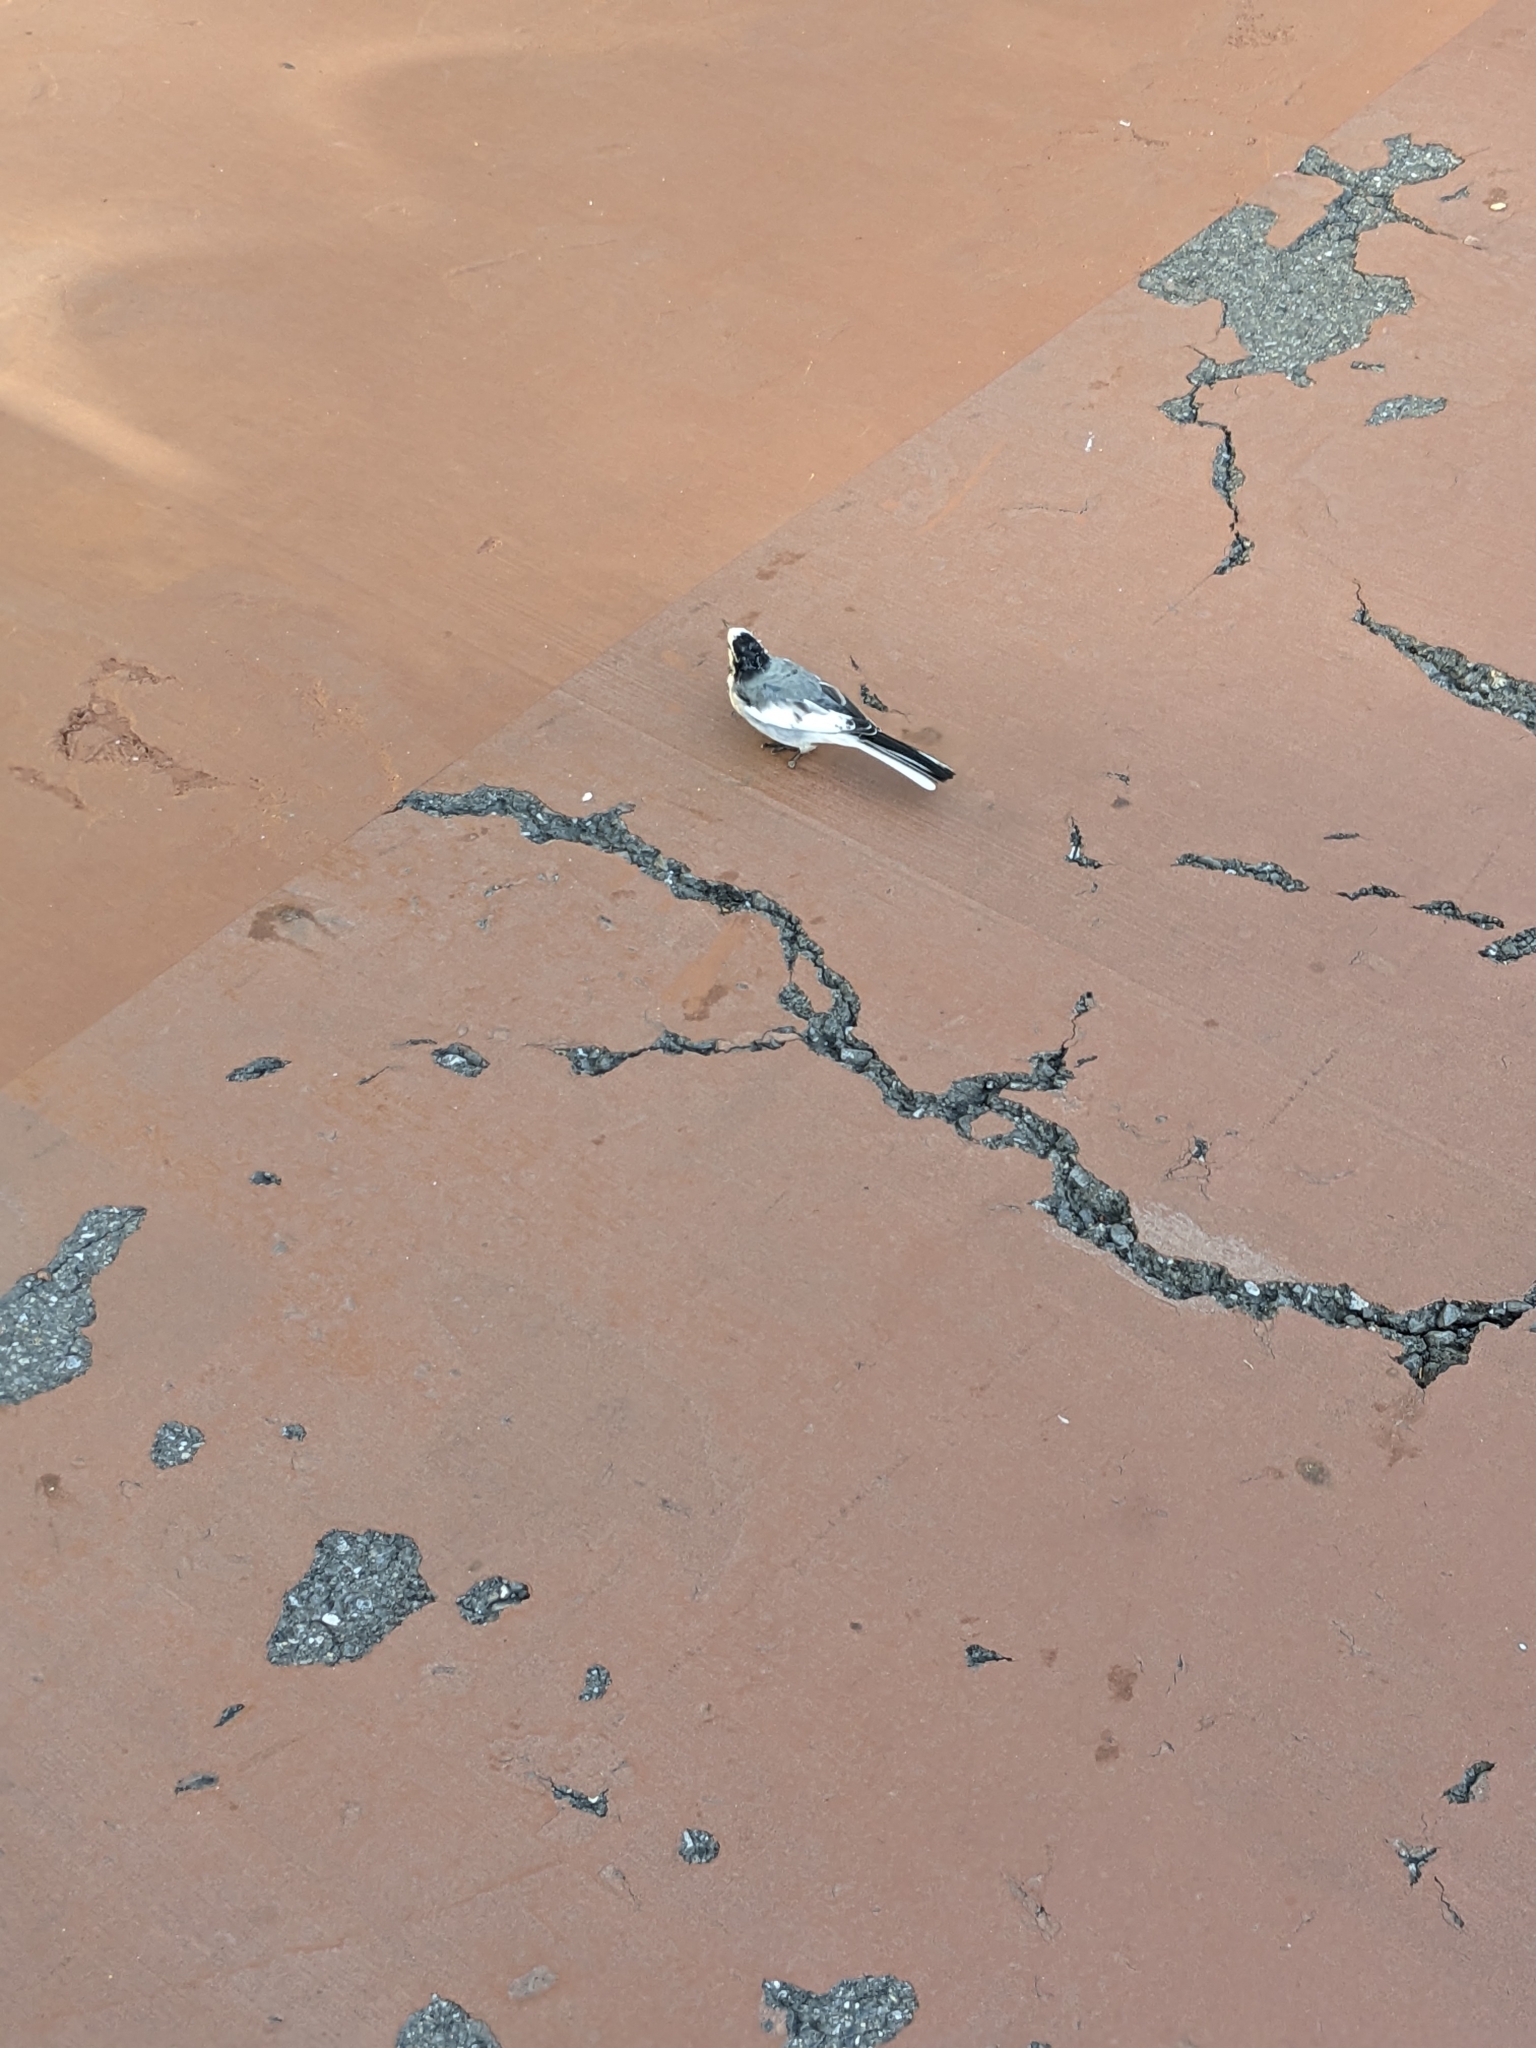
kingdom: Animalia
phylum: Chordata
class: Aves
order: Passeriformes
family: Motacillidae
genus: Motacilla
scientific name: Motacilla alba
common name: White wagtail
